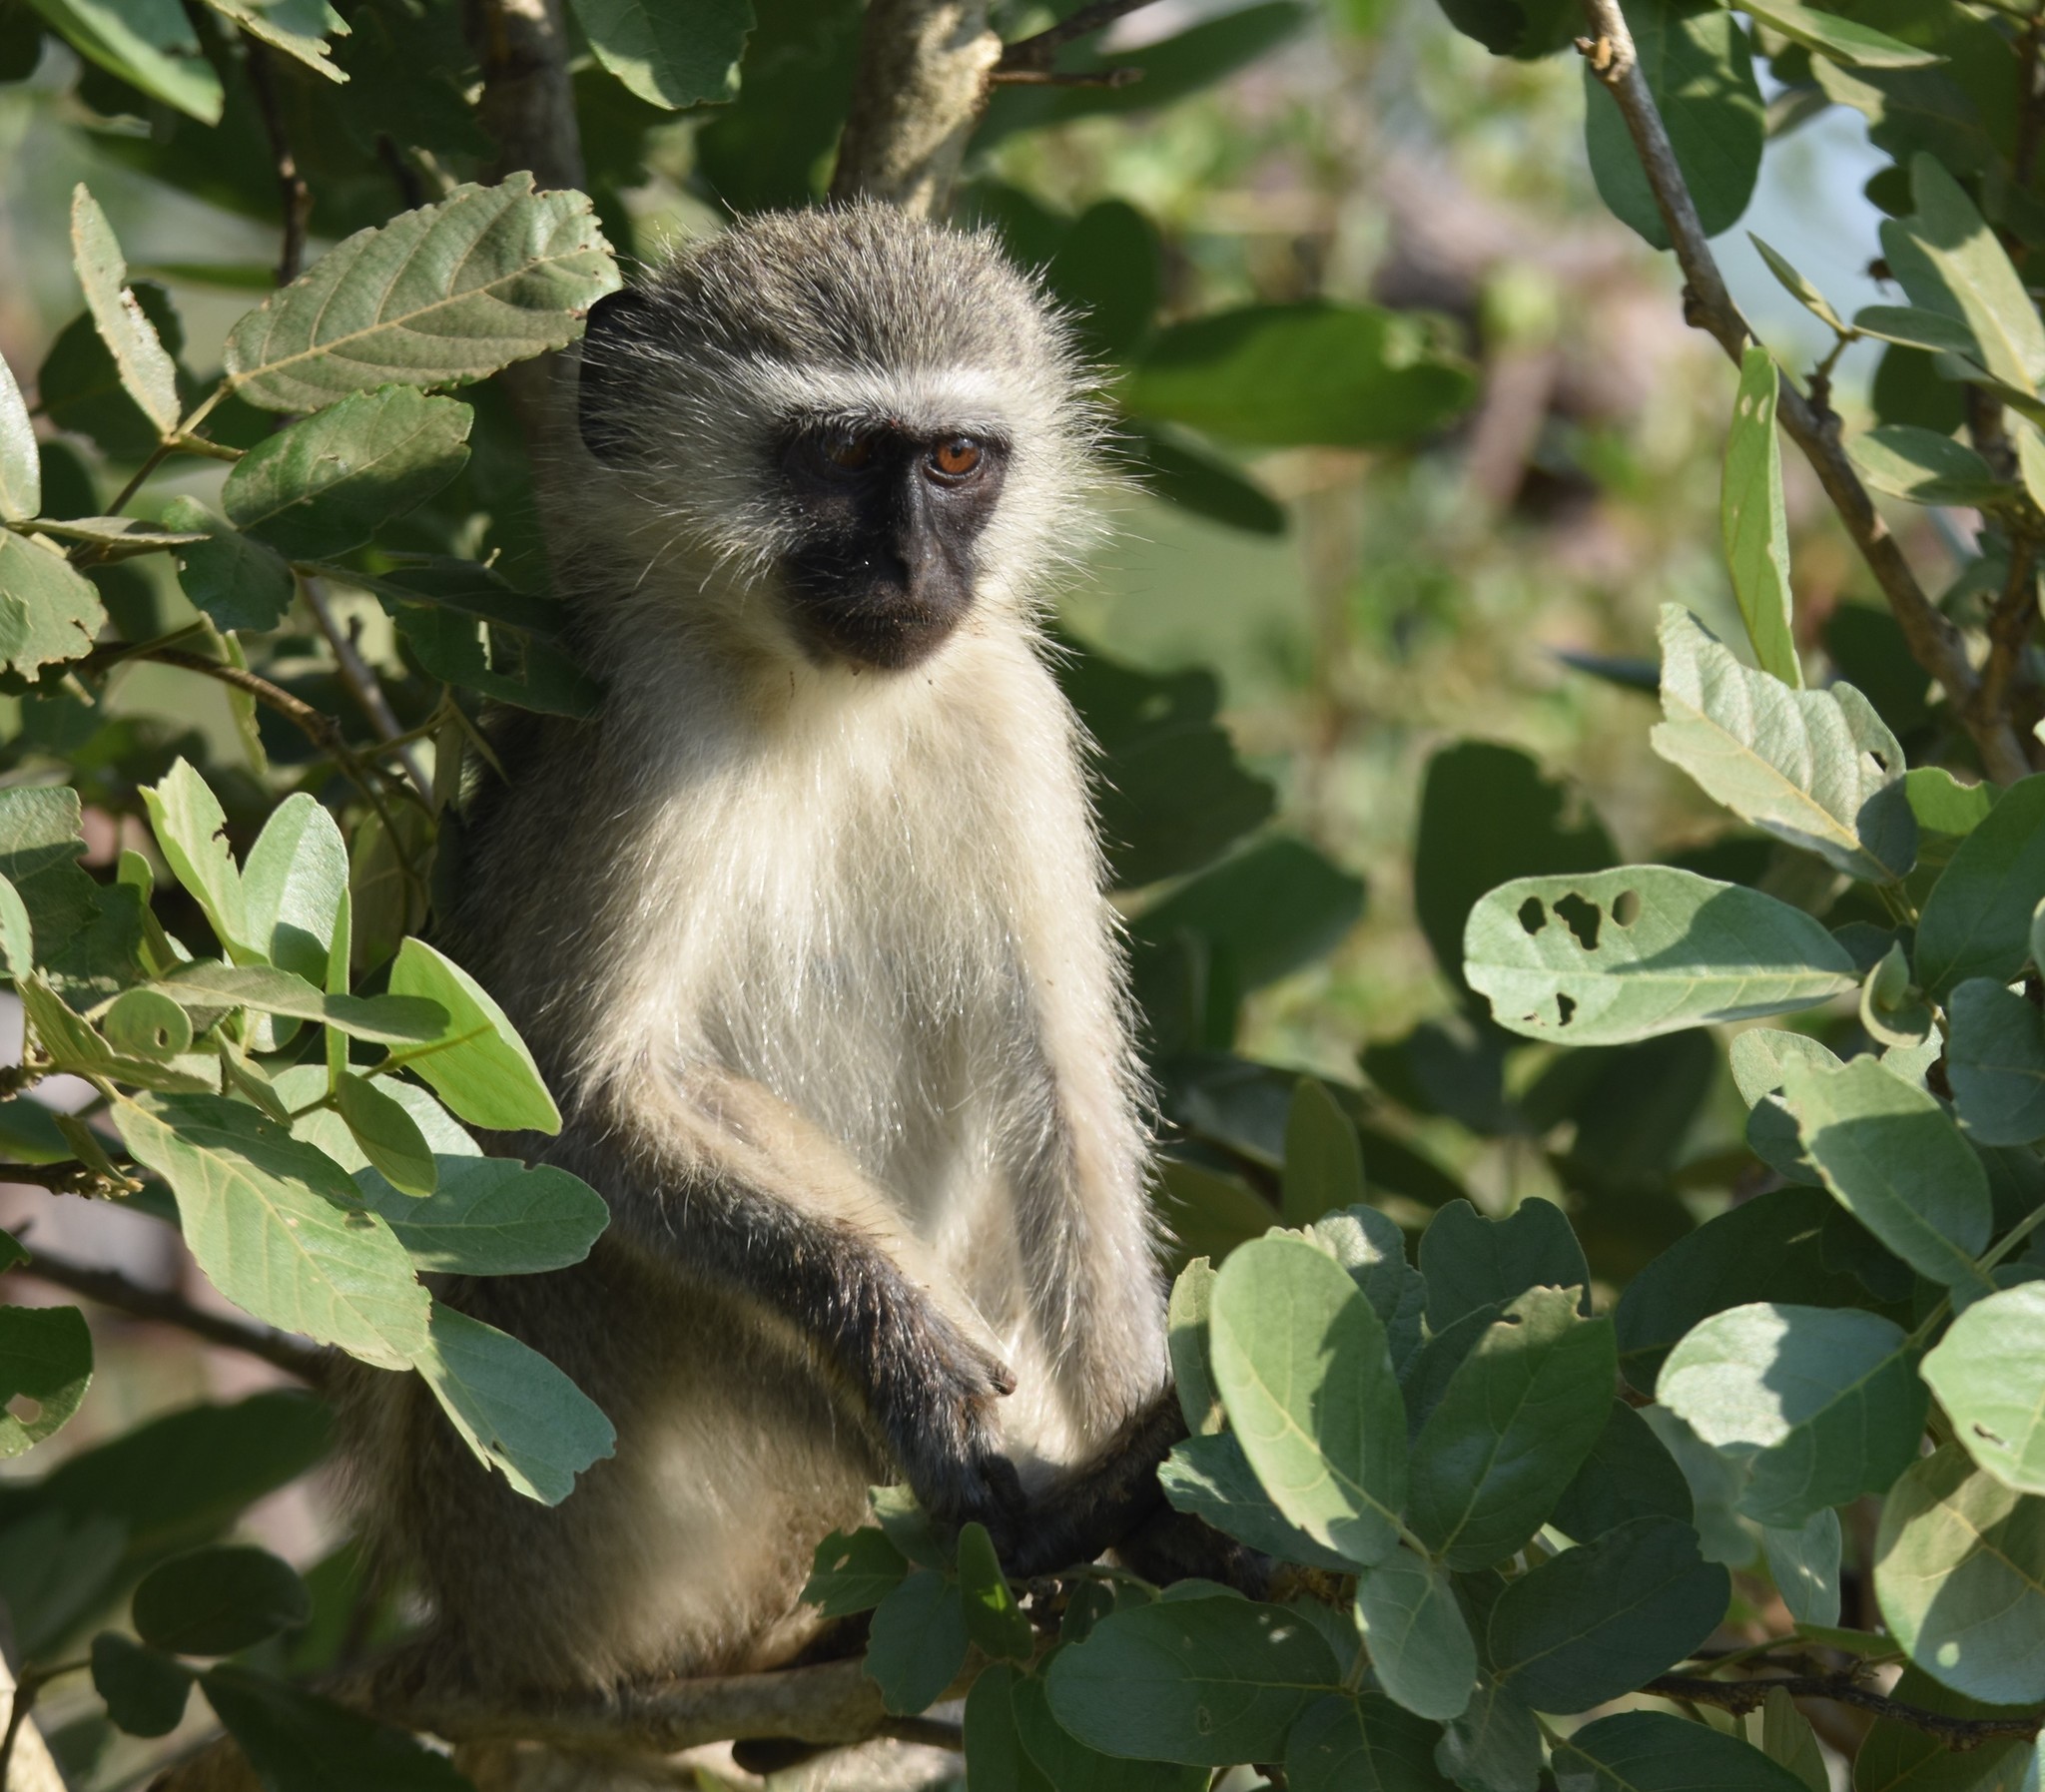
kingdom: Animalia
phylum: Chordata
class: Mammalia
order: Primates
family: Cercopithecidae
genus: Chlorocebus
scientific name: Chlorocebus pygerythrus
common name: Vervet monkey
